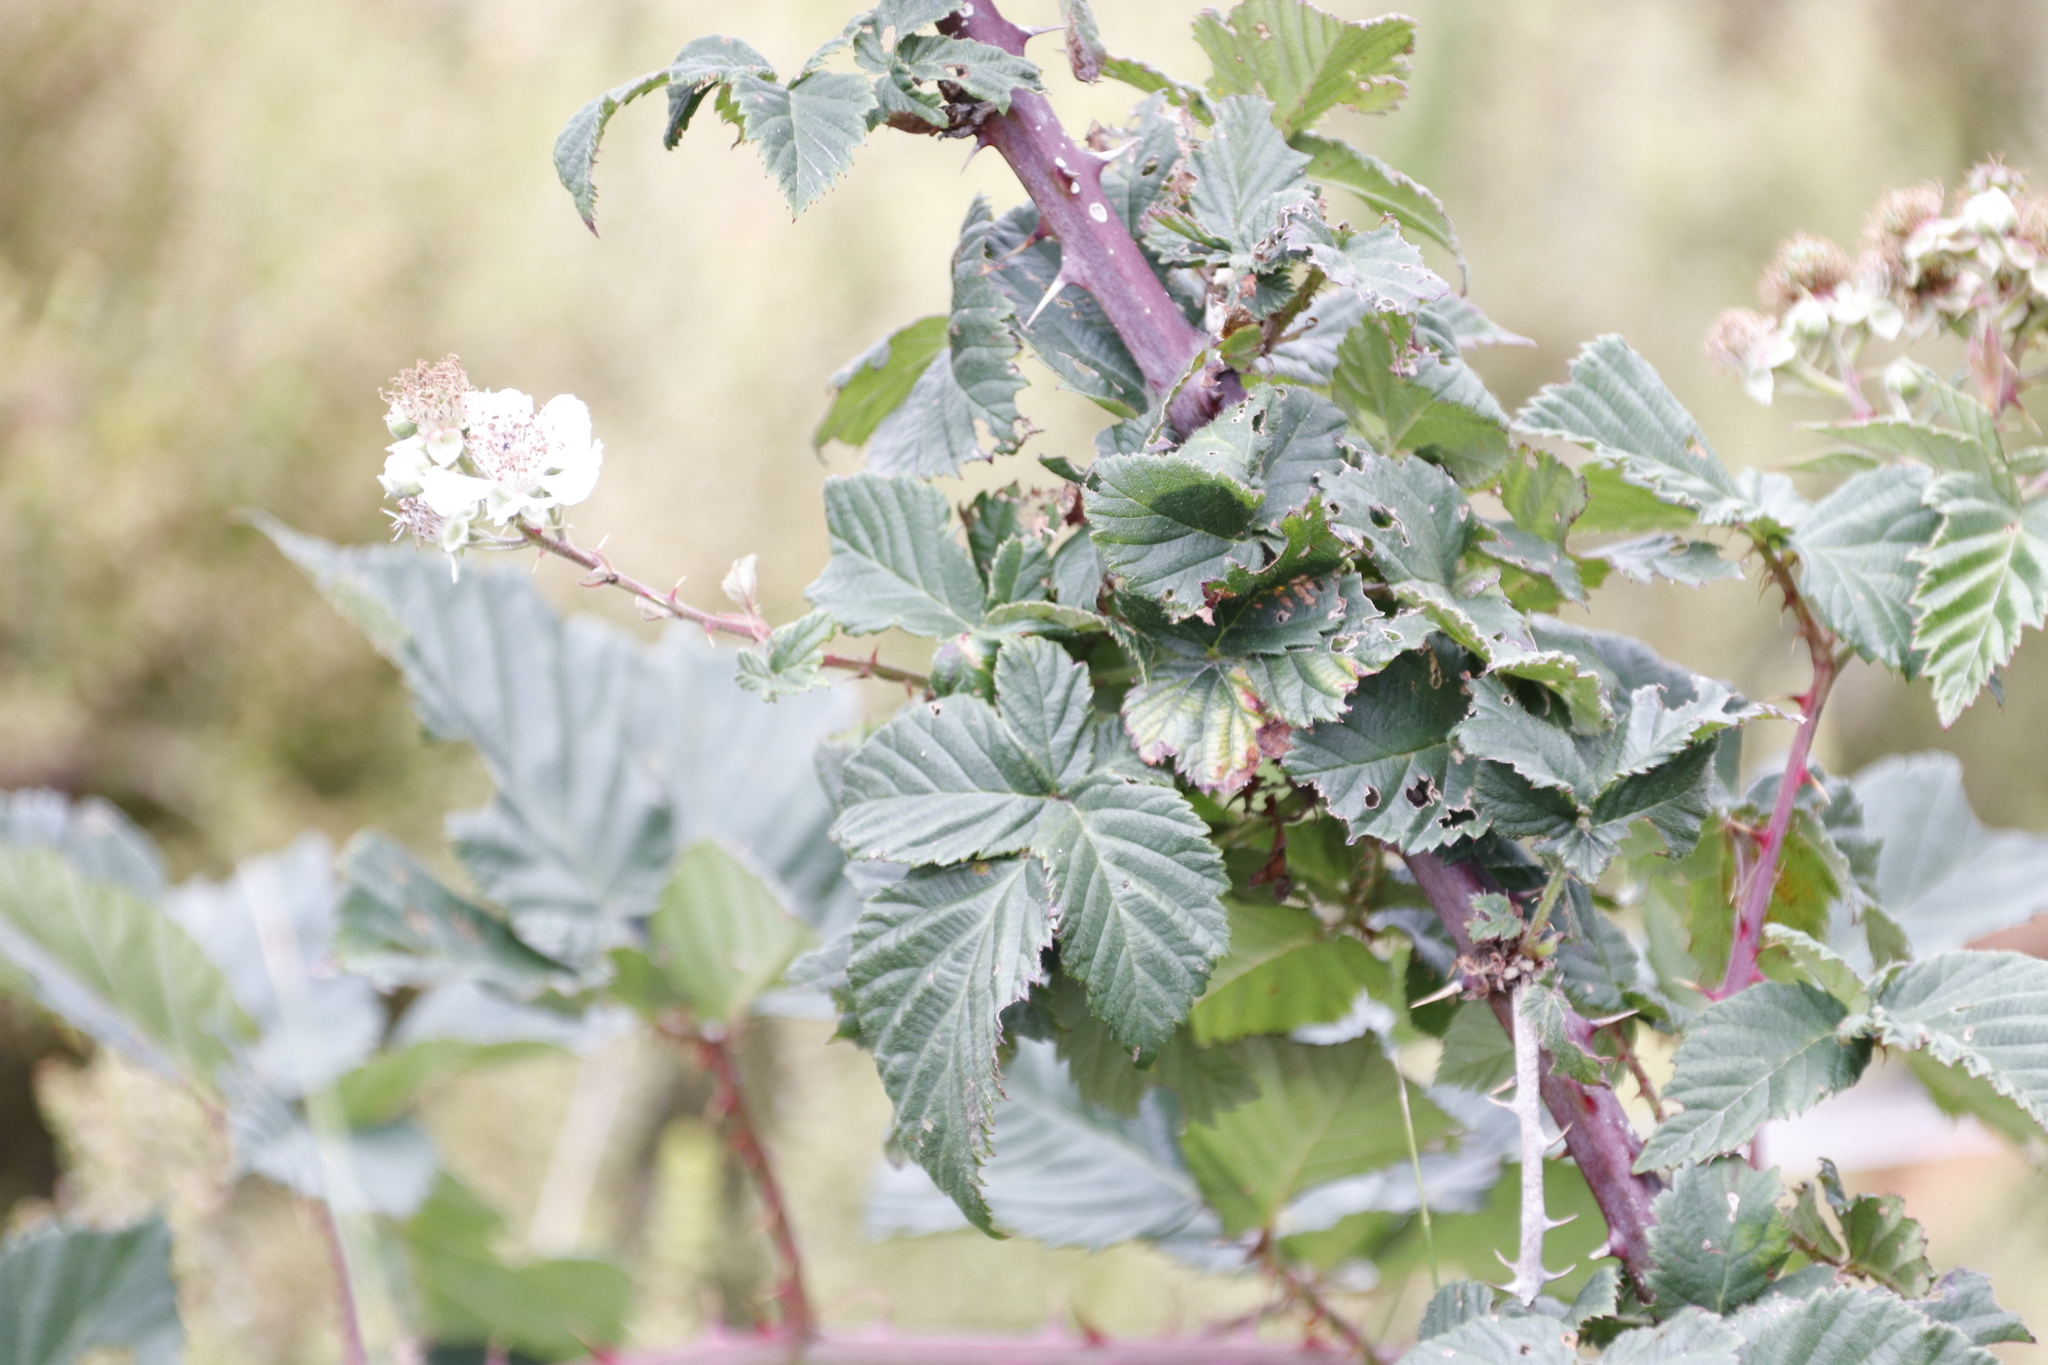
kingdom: Plantae
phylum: Tracheophyta
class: Magnoliopsida
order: Rosales
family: Rosaceae
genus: Rubus
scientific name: Rubus affinis
